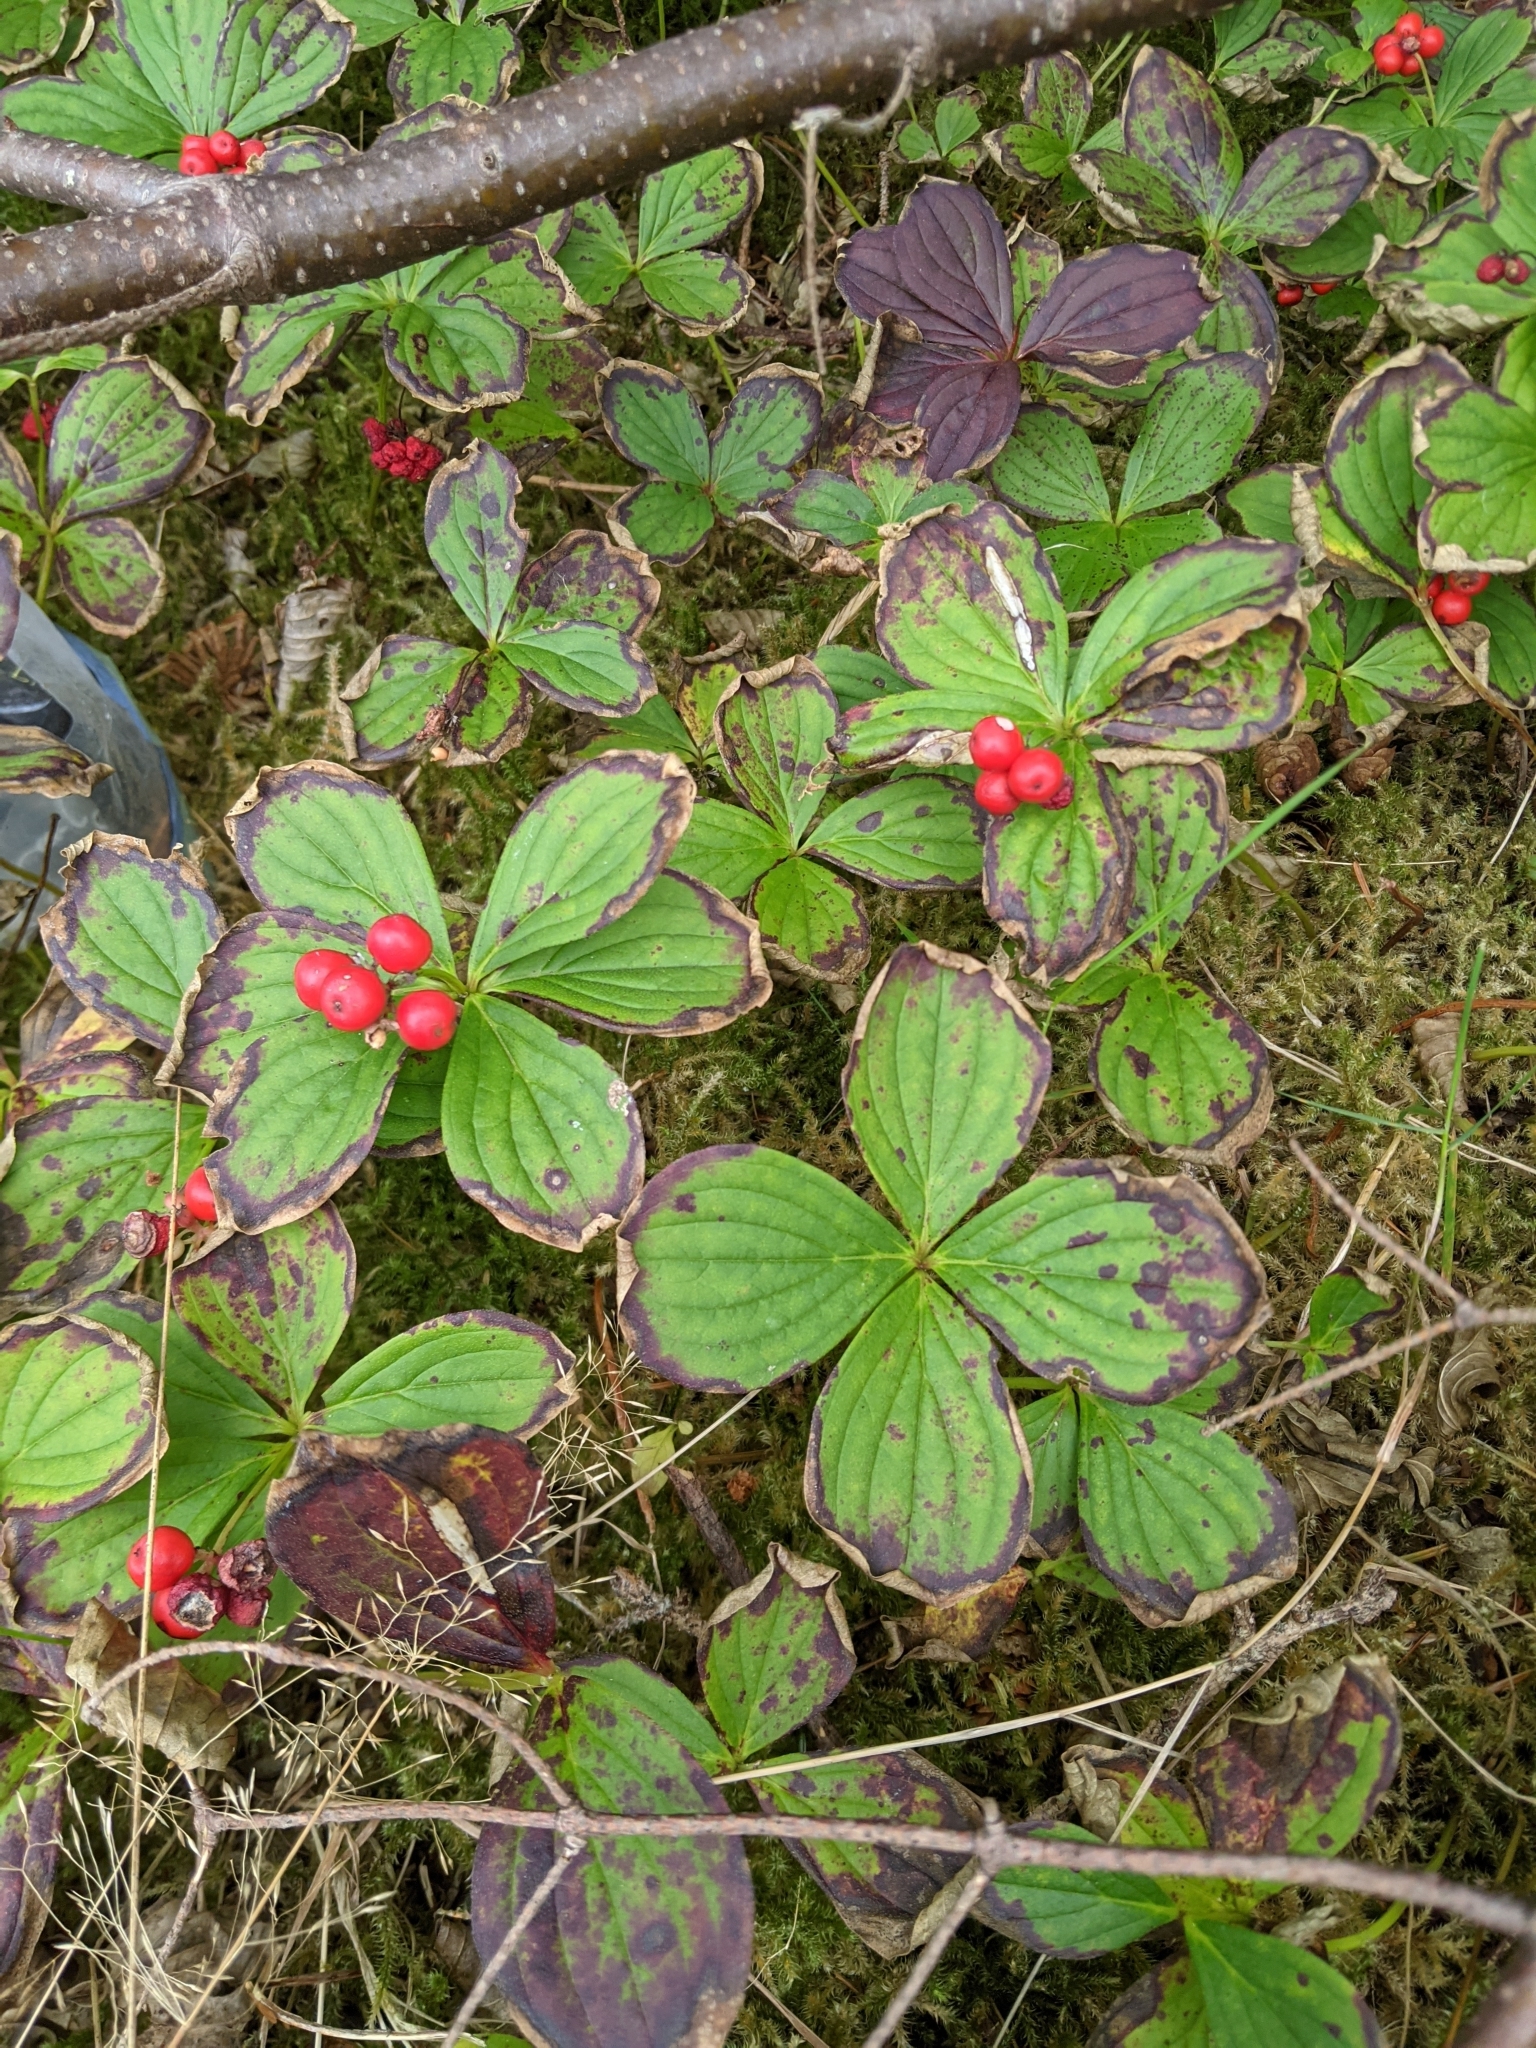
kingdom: Plantae
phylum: Tracheophyta
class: Magnoliopsida
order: Cornales
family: Cornaceae
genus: Cornus
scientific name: Cornus canadensis
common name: Creeping dogwood
